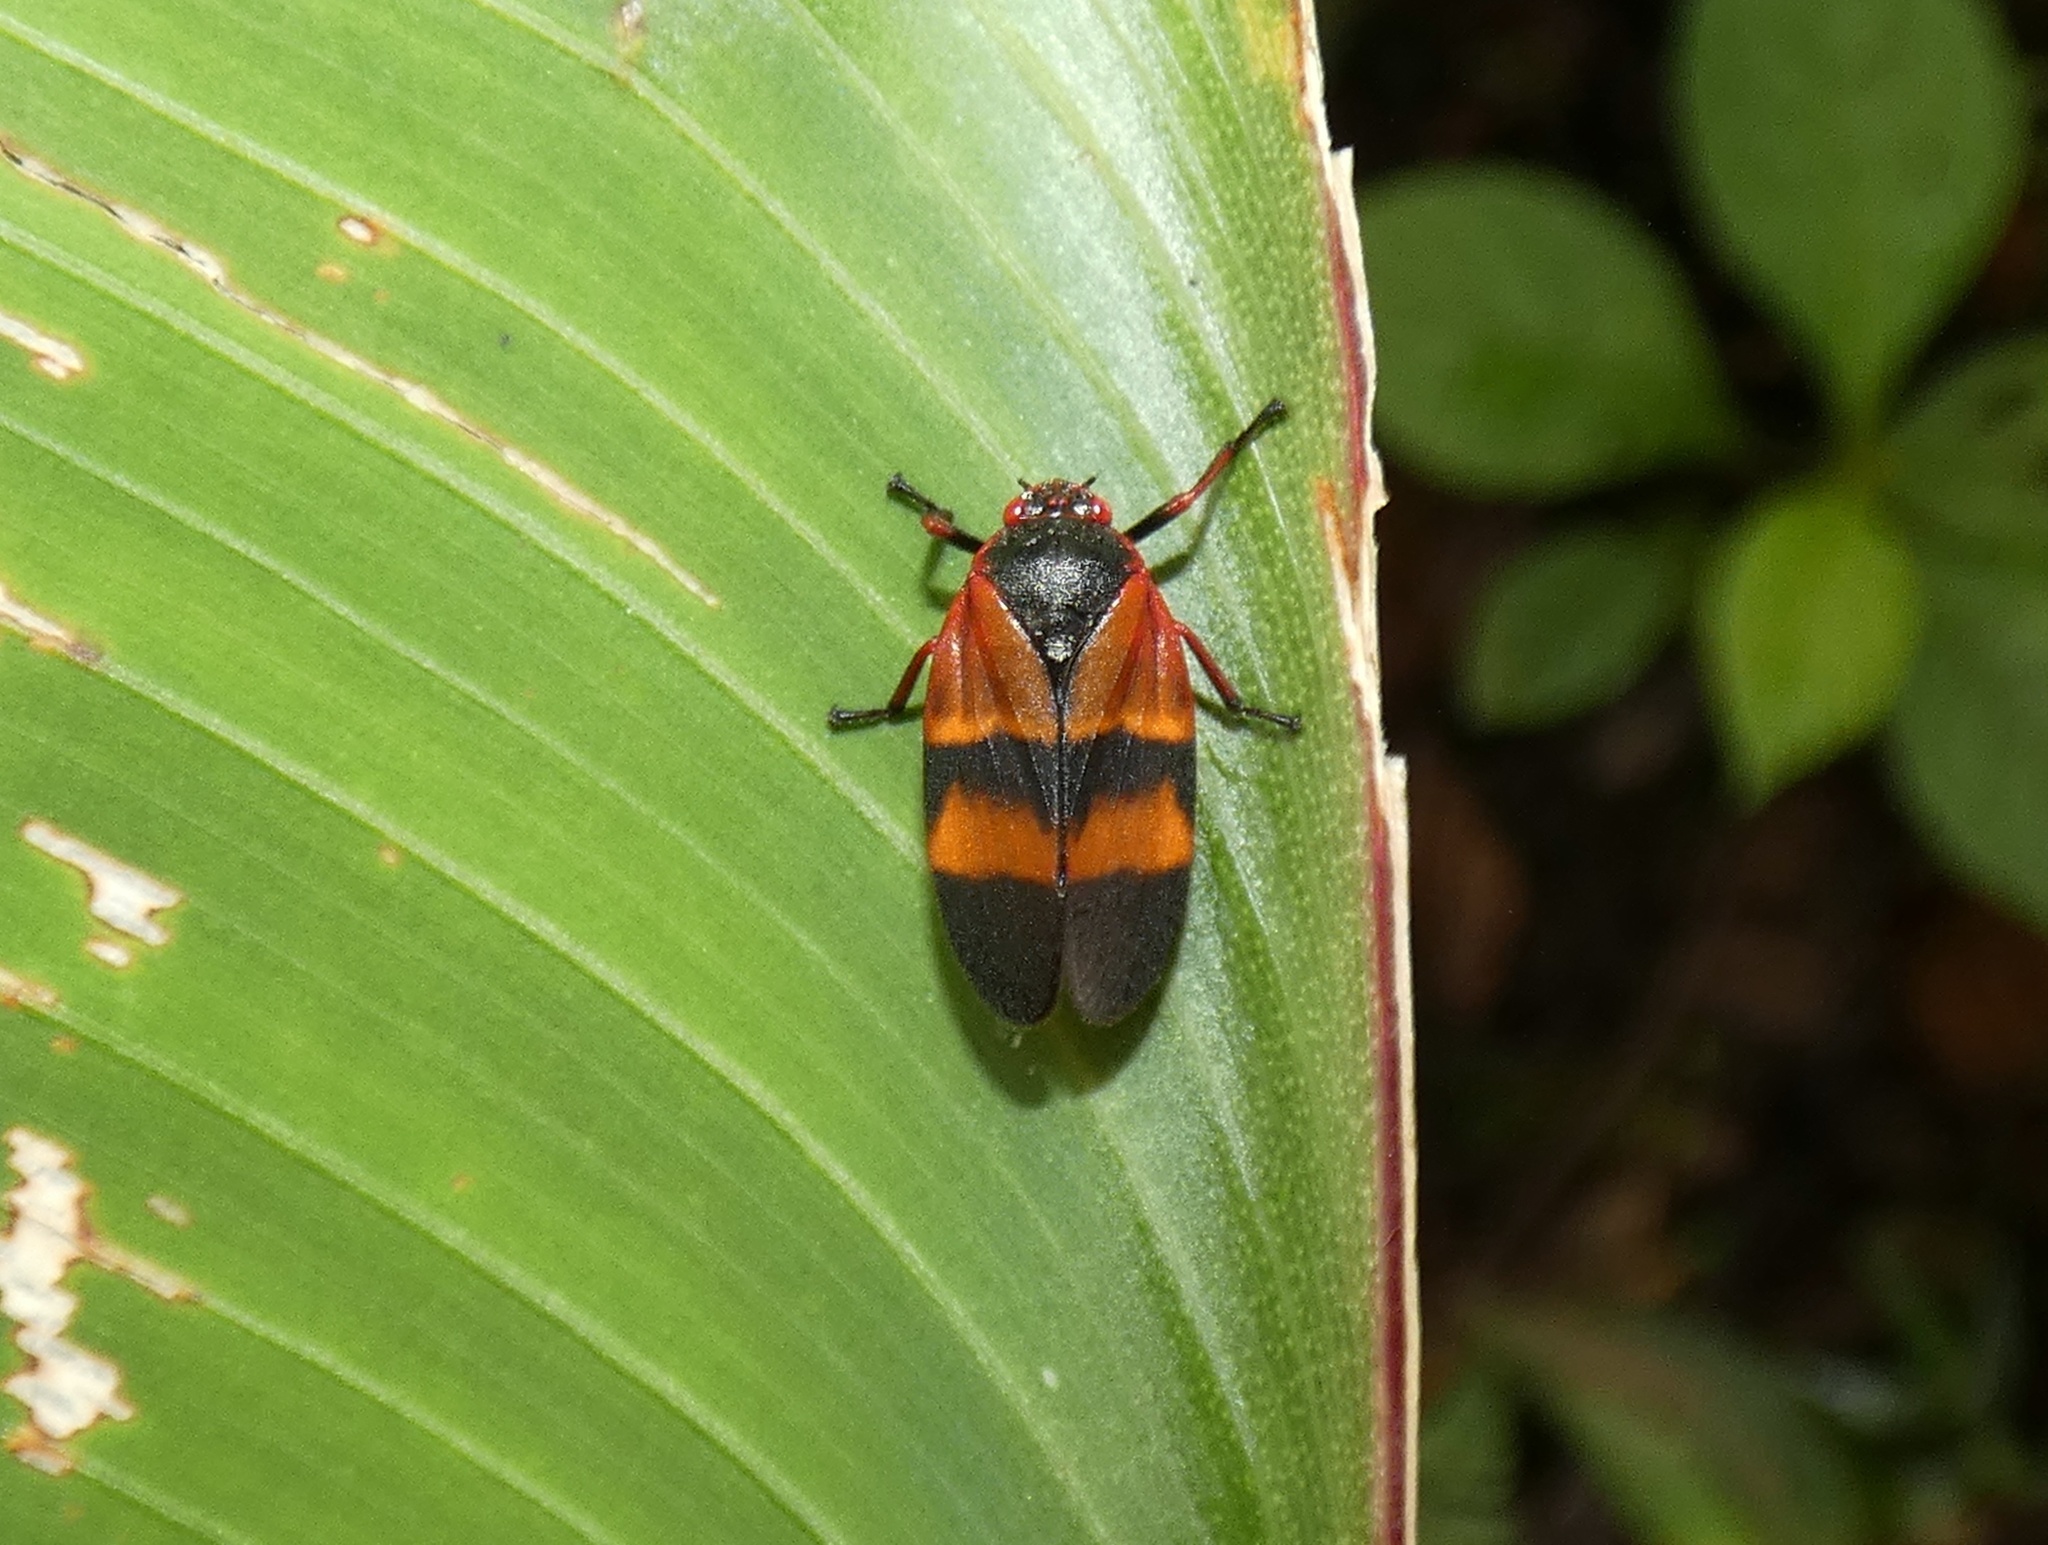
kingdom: Animalia
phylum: Arthropoda
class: Insecta
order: Hemiptera
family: Cercopidae
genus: Prosapia
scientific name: Prosapia
